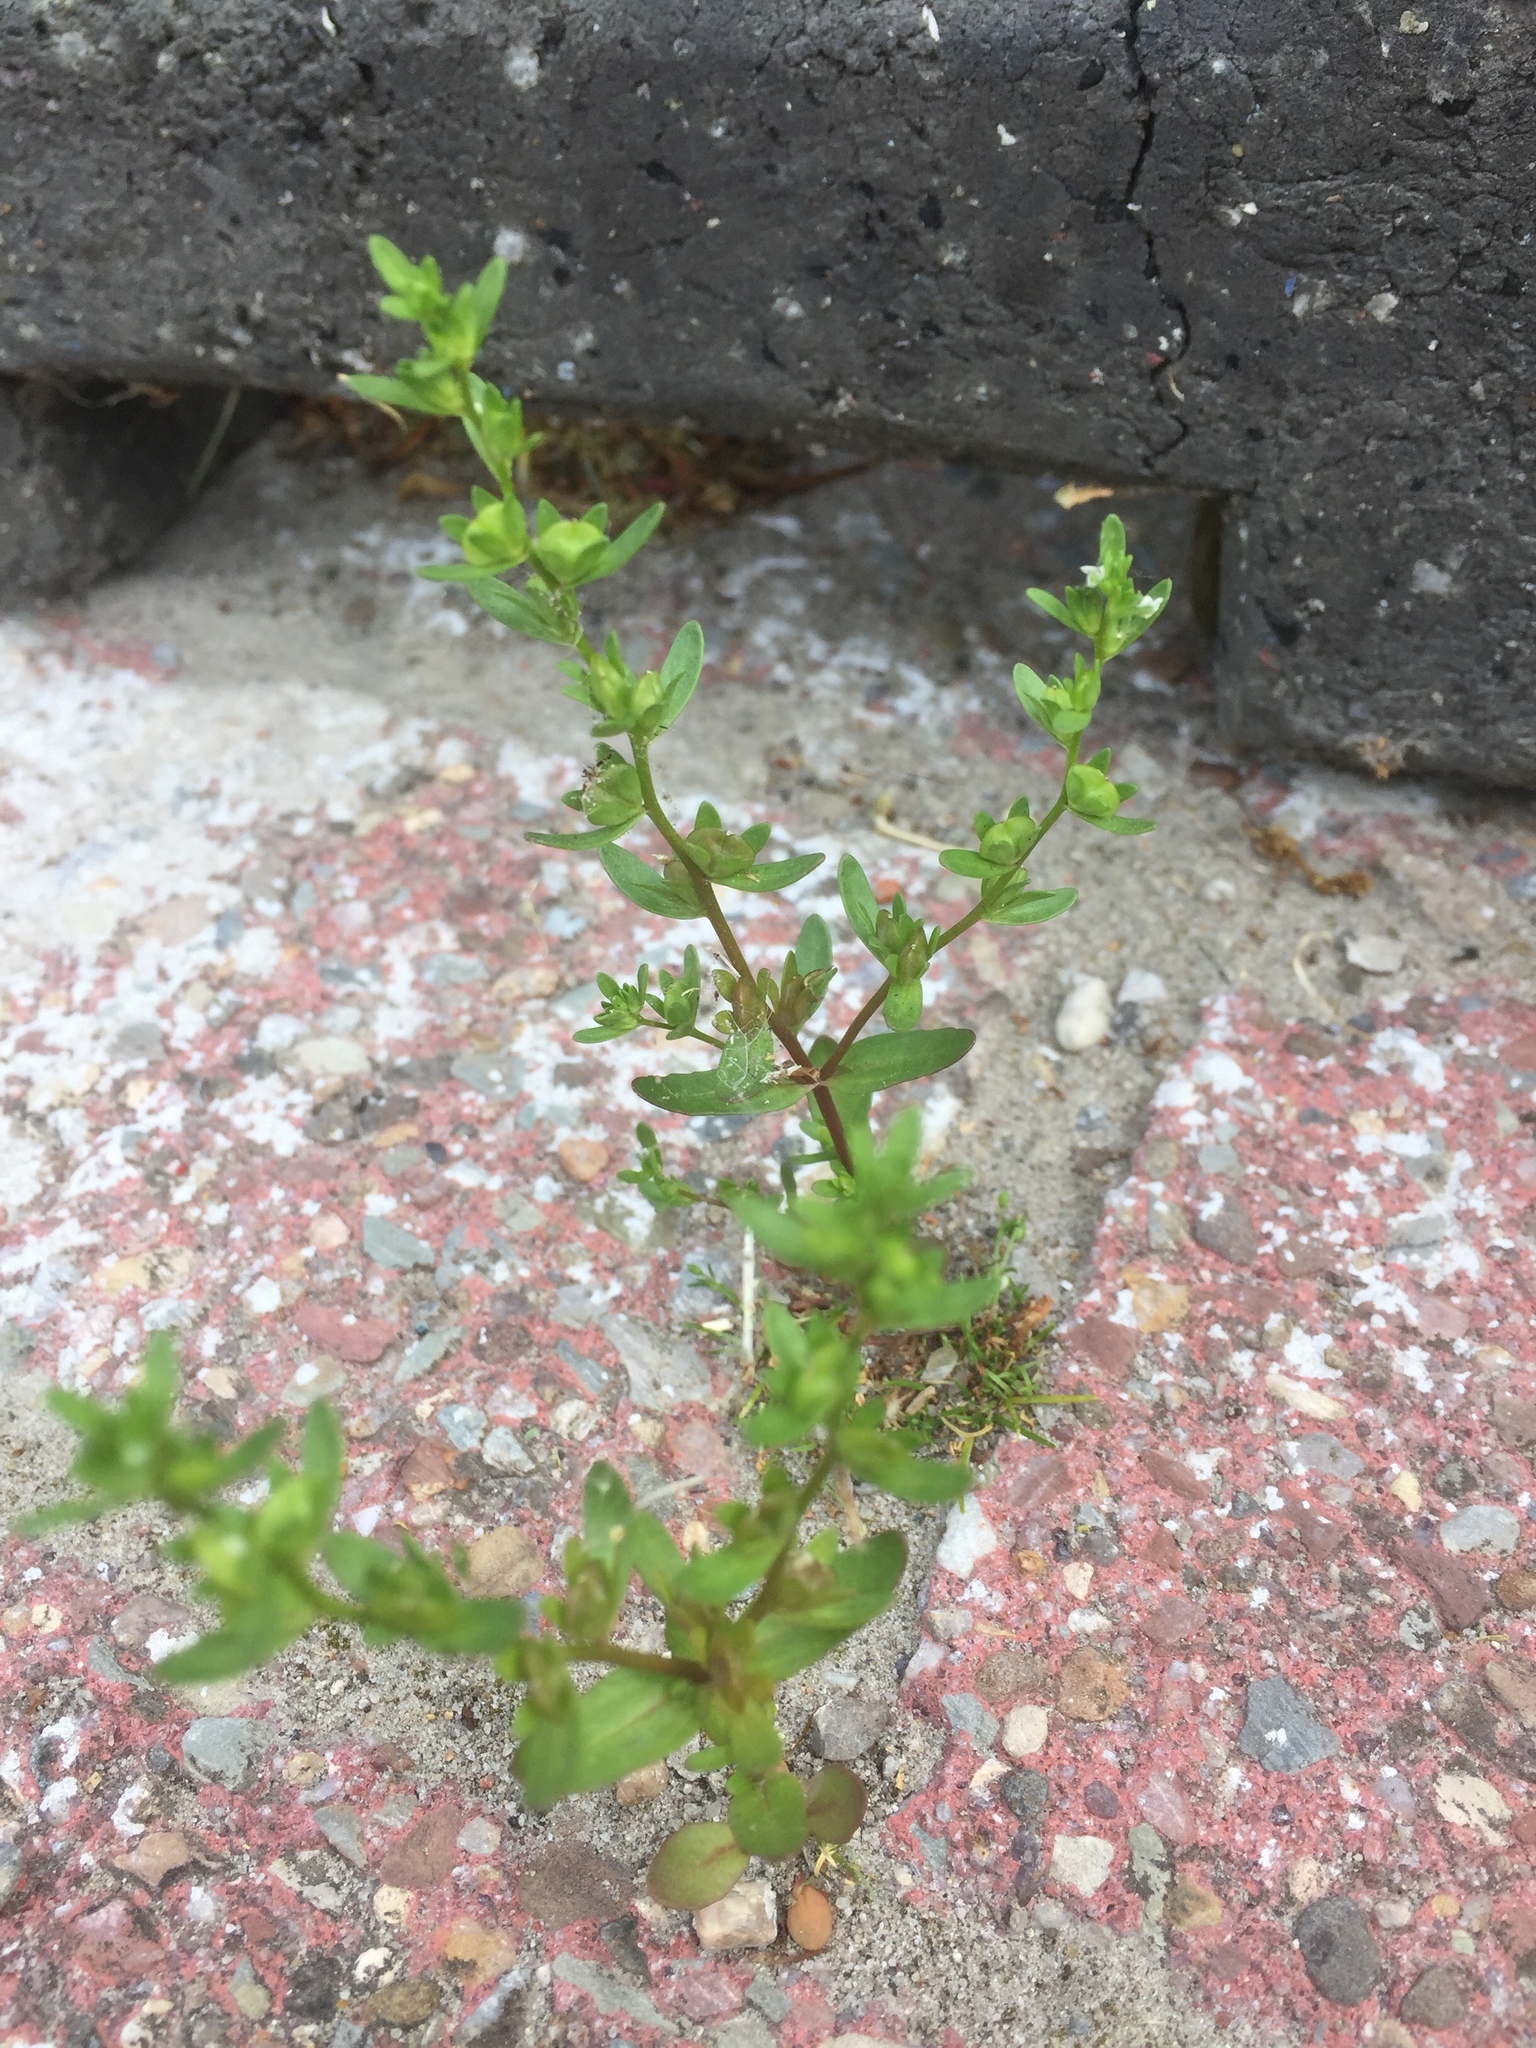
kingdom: Plantae
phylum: Tracheophyta
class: Magnoliopsida
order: Lamiales
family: Plantaginaceae
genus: Veronica
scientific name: Veronica peregrina
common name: Neckweed
